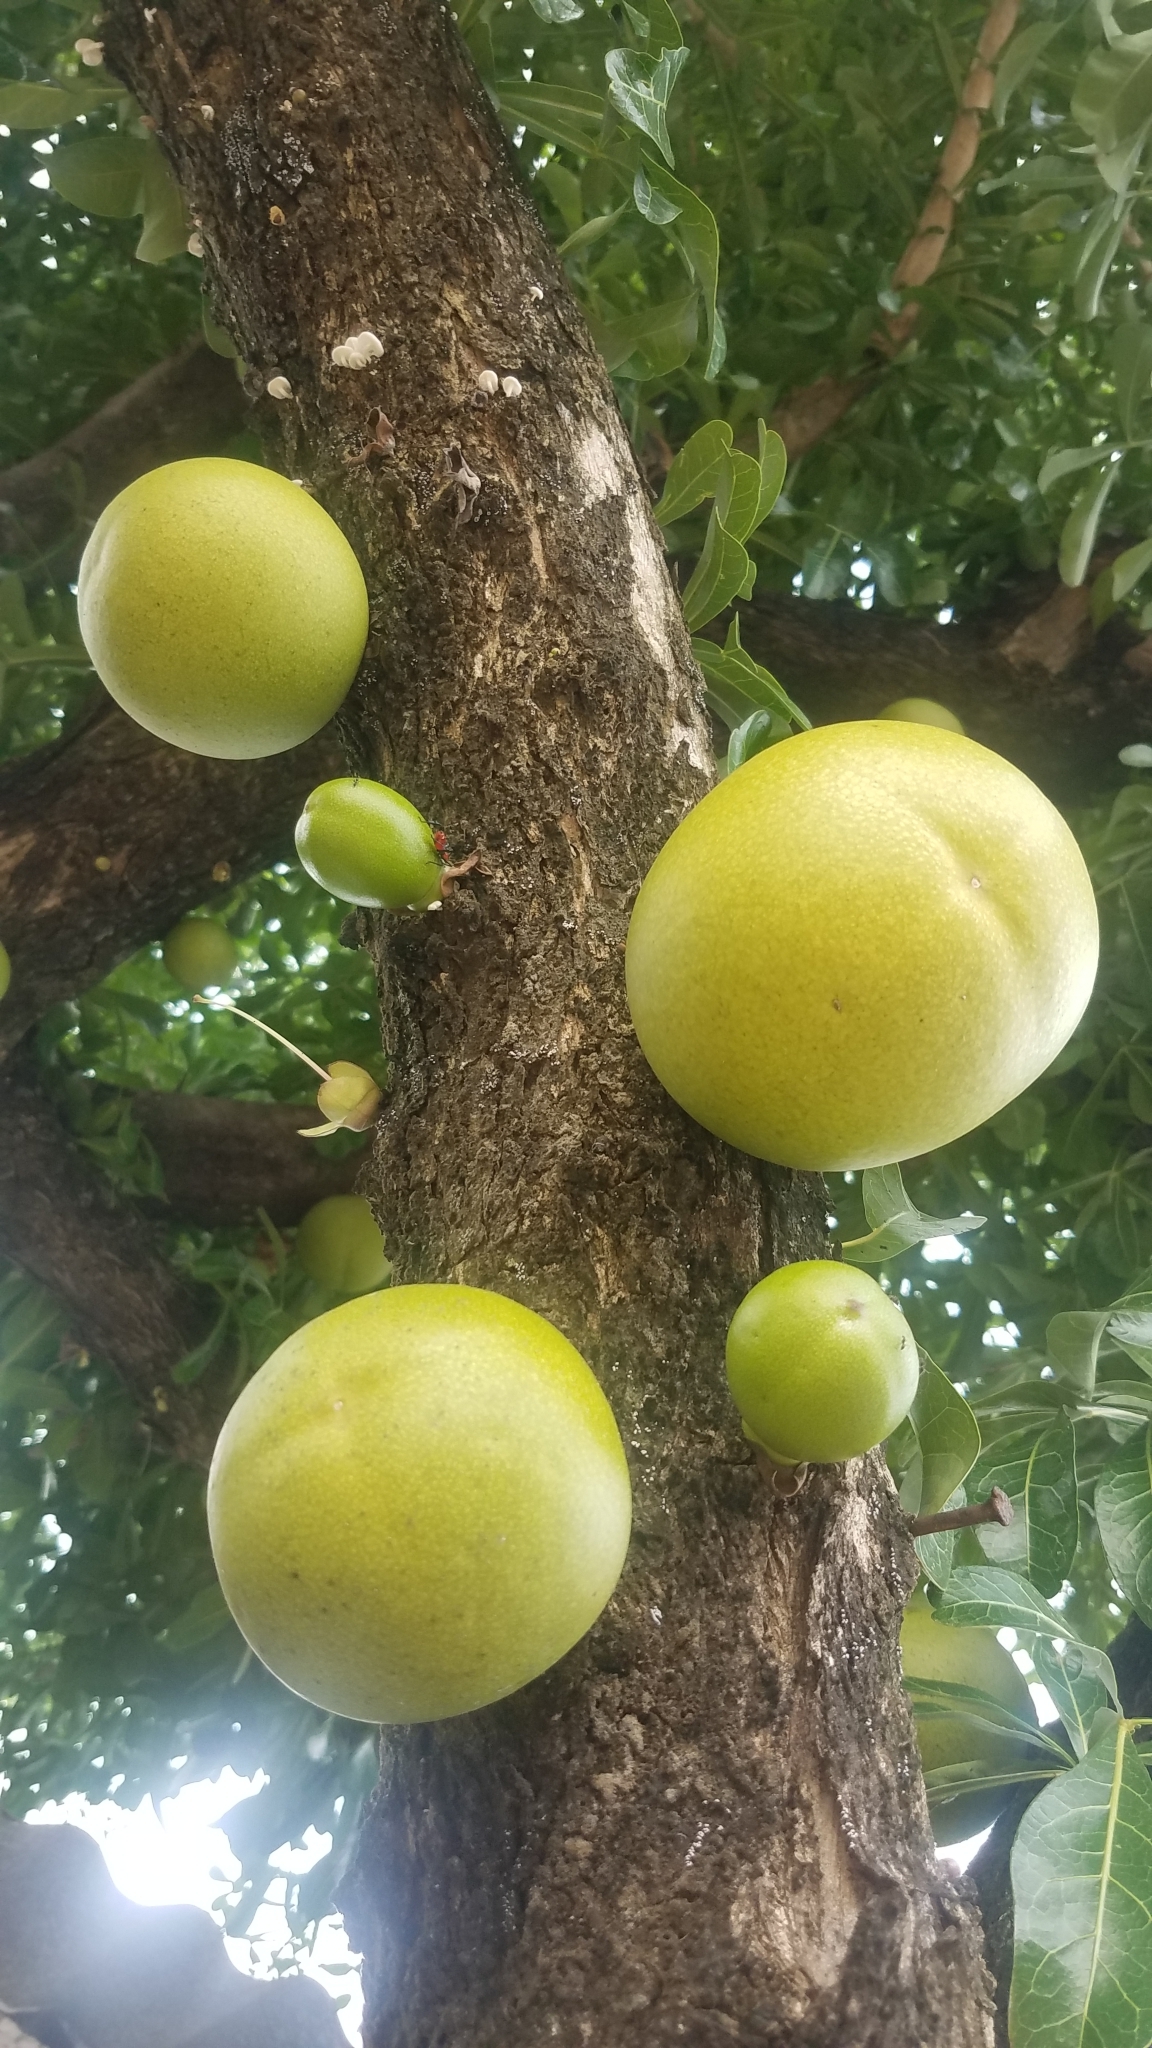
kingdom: Plantae
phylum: Tracheophyta
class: Magnoliopsida
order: Lamiales
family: Bignoniaceae
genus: Crescentia
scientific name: Crescentia alata
